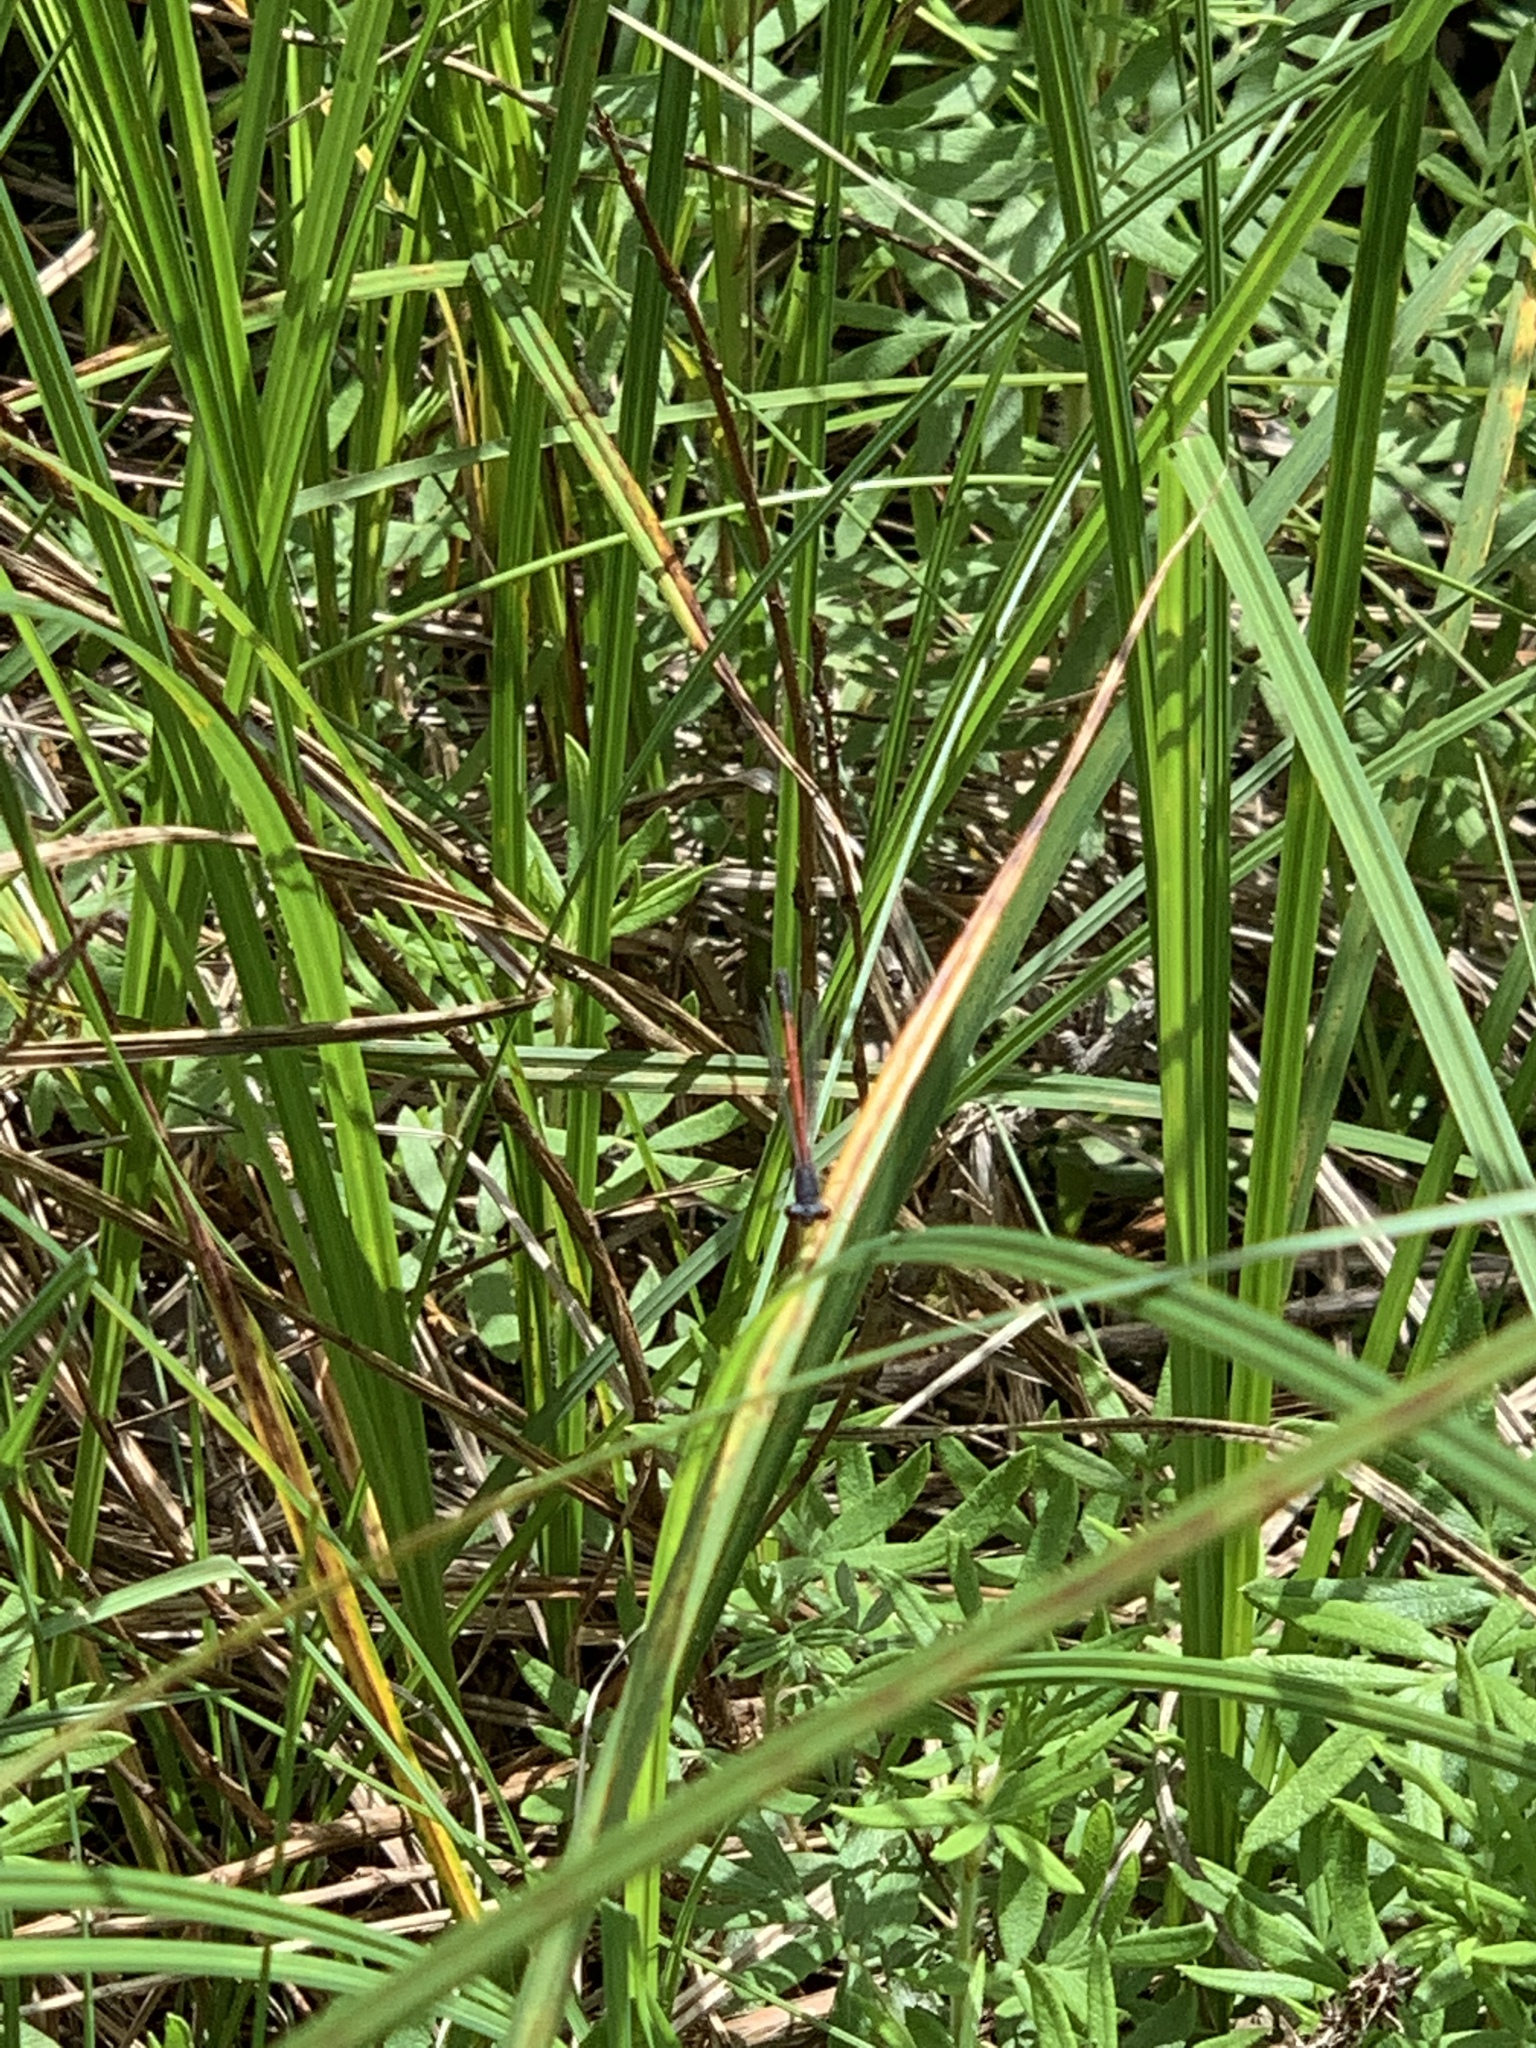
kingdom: Animalia
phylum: Arthropoda
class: Insecta
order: Odonata
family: Coenagrionidae
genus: Amphiagrion
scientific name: Amphiagrion saucium
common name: Eastern red damsel
